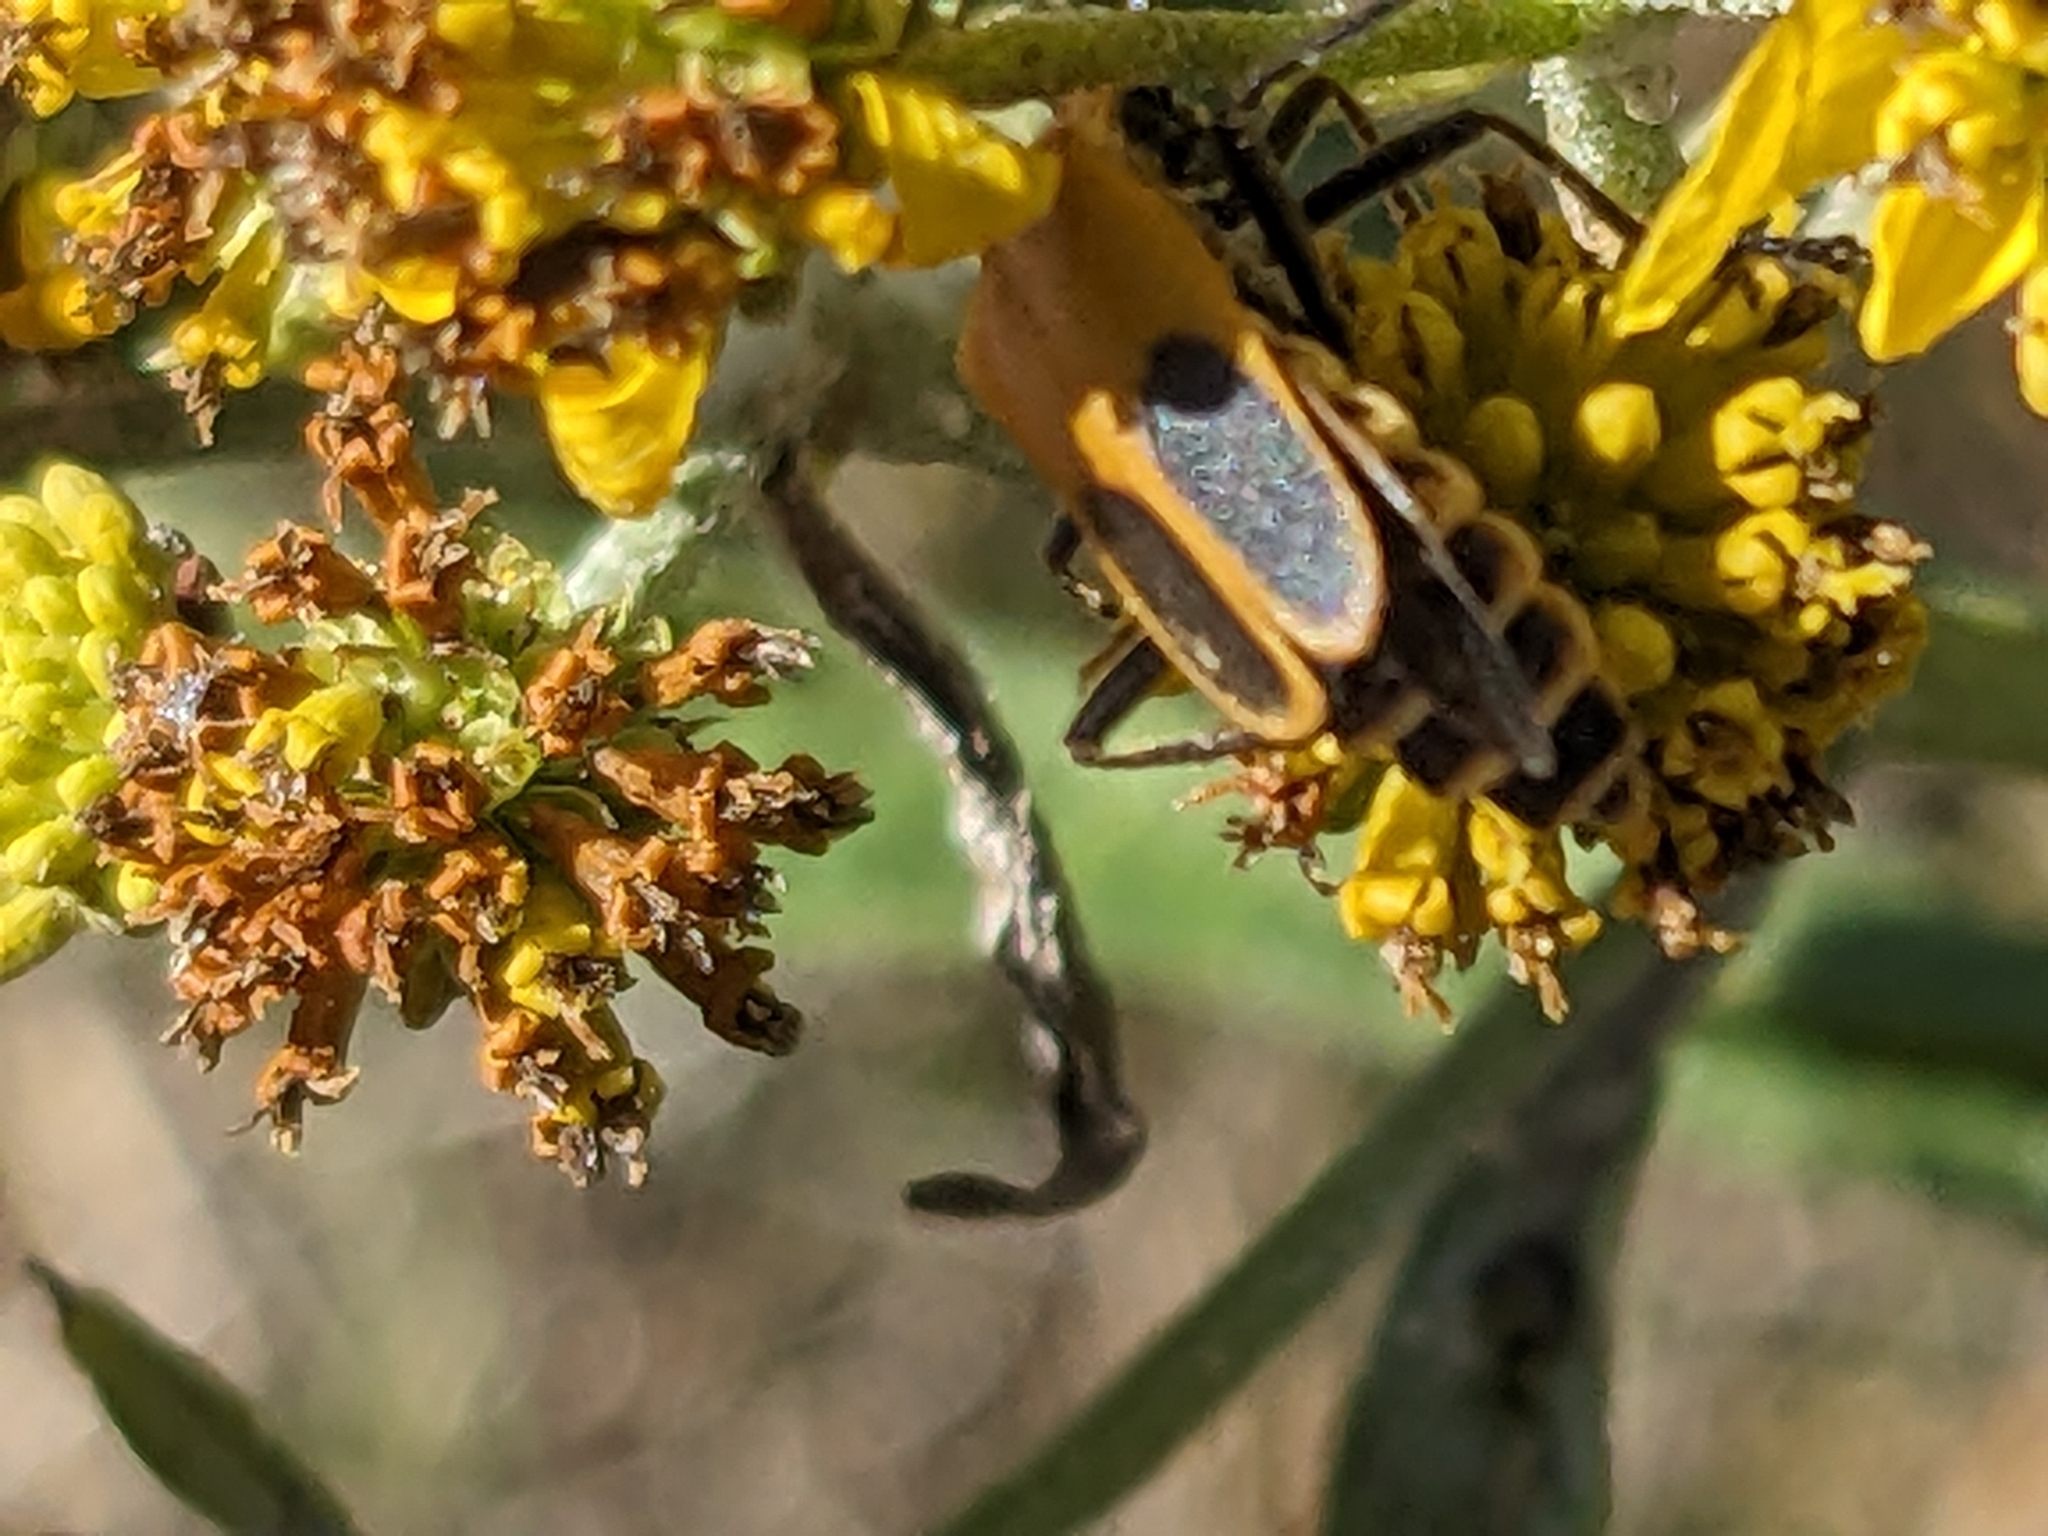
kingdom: Animalia
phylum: Arthropoda
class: Insecta
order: Coleoptera
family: Cantharidae
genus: Chauliognathus
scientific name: Chauliognathus pensylvanicus
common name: Goldenrod soldier beetle
